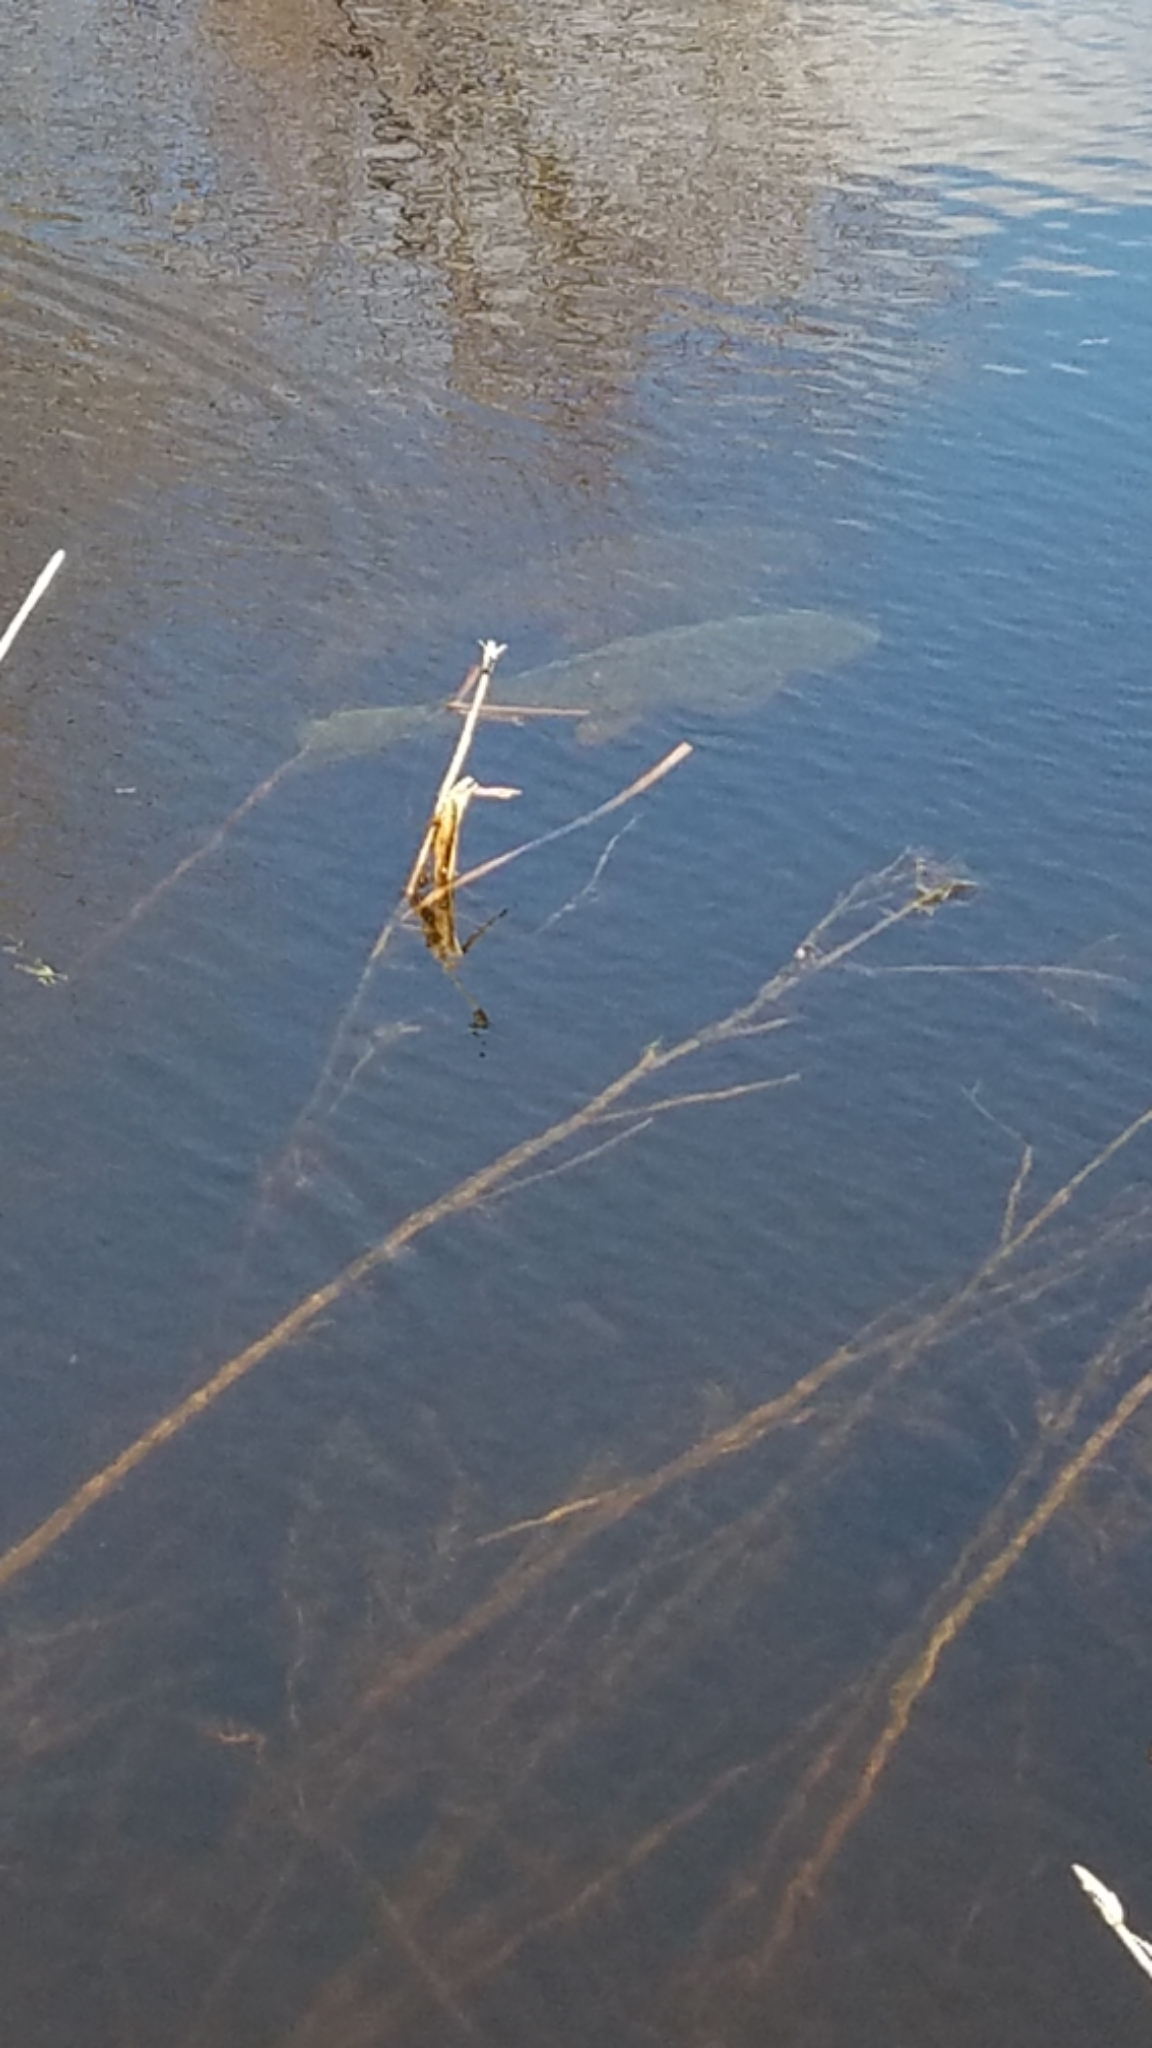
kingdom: Animalia
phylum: Chordata
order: Cypriniformes
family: Cyprinidae
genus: Cyprinus
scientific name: Cyprinus carpio
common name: Common carp
